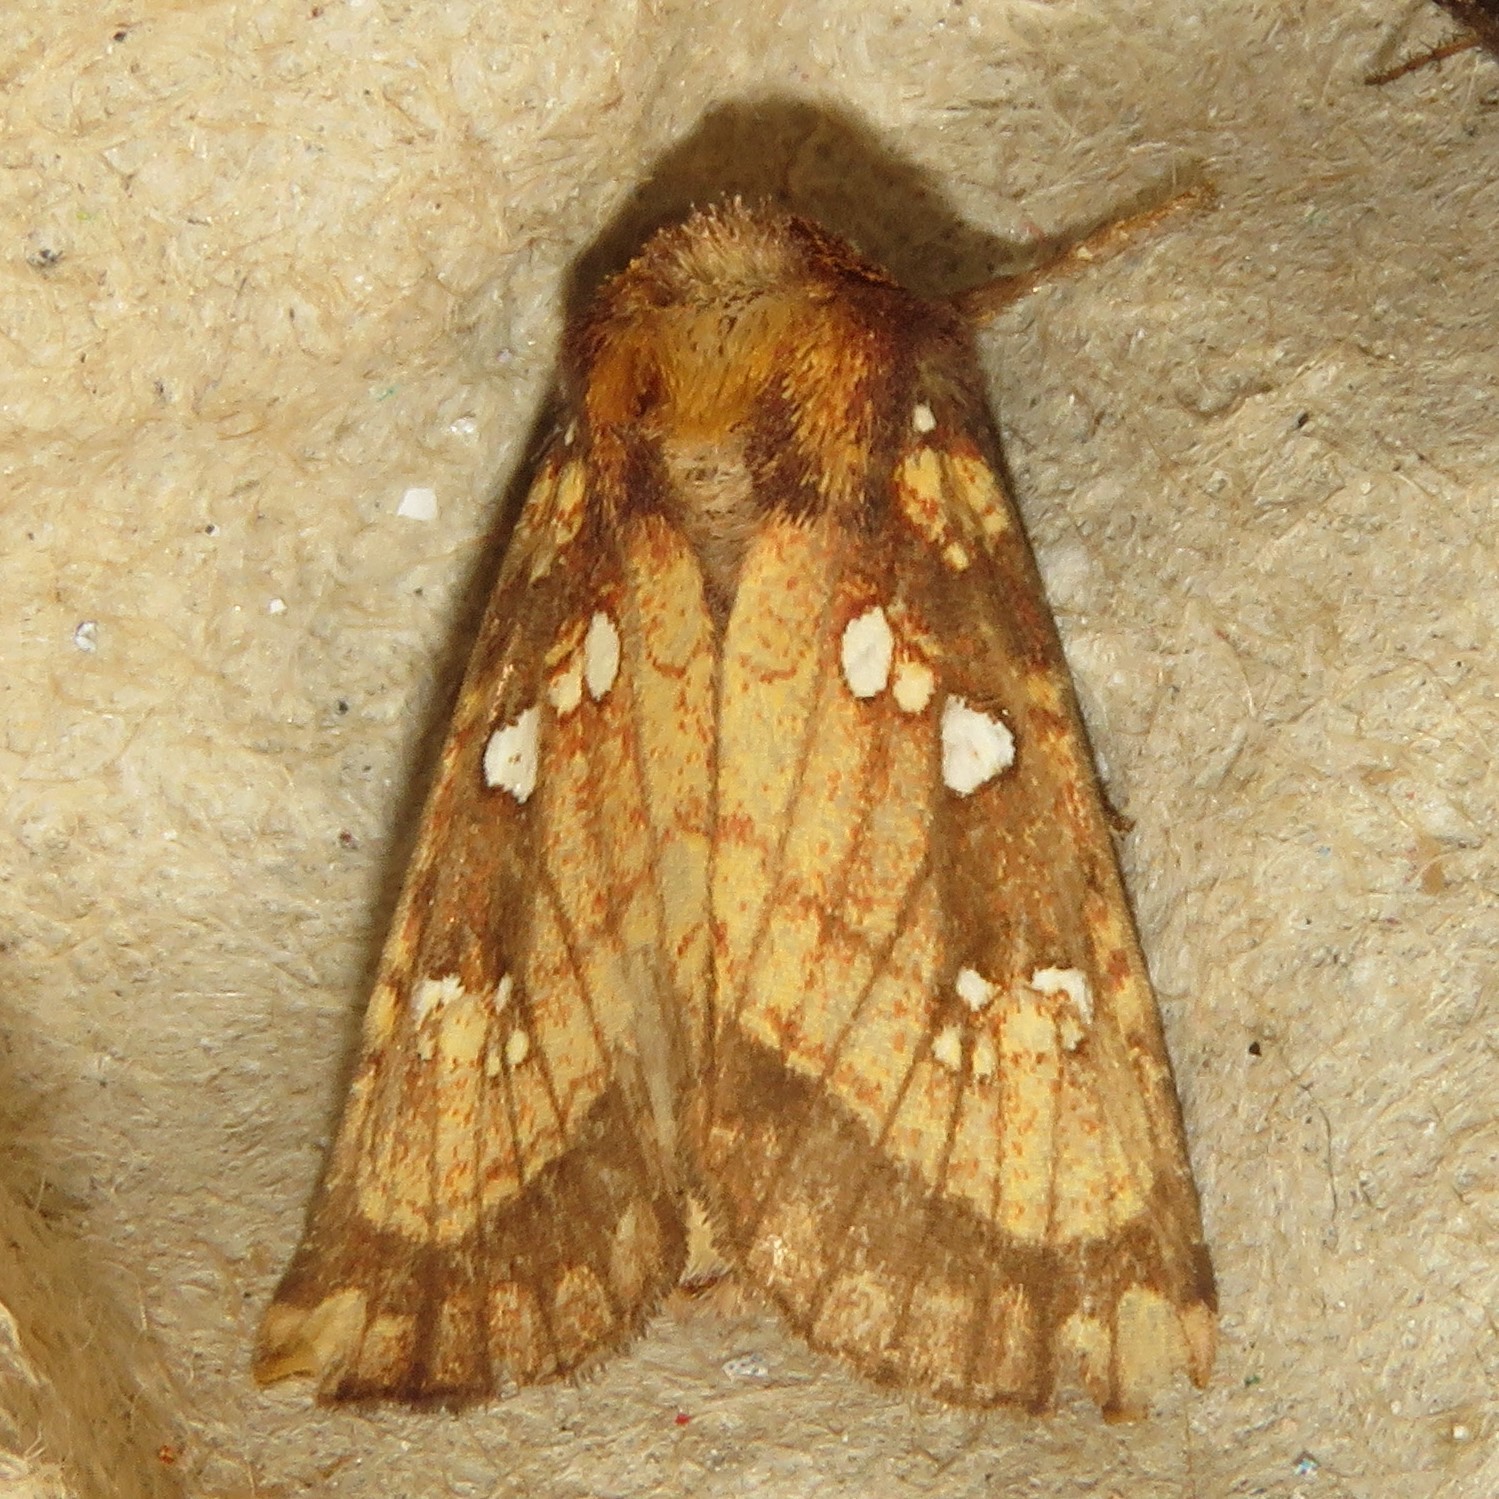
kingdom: Animalia
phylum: Arthropoda
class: Insecta
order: Lepidoptera
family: Noctuidae
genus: Papaipema
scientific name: Papaipema arctivorens
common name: Northern burdock borer moth
